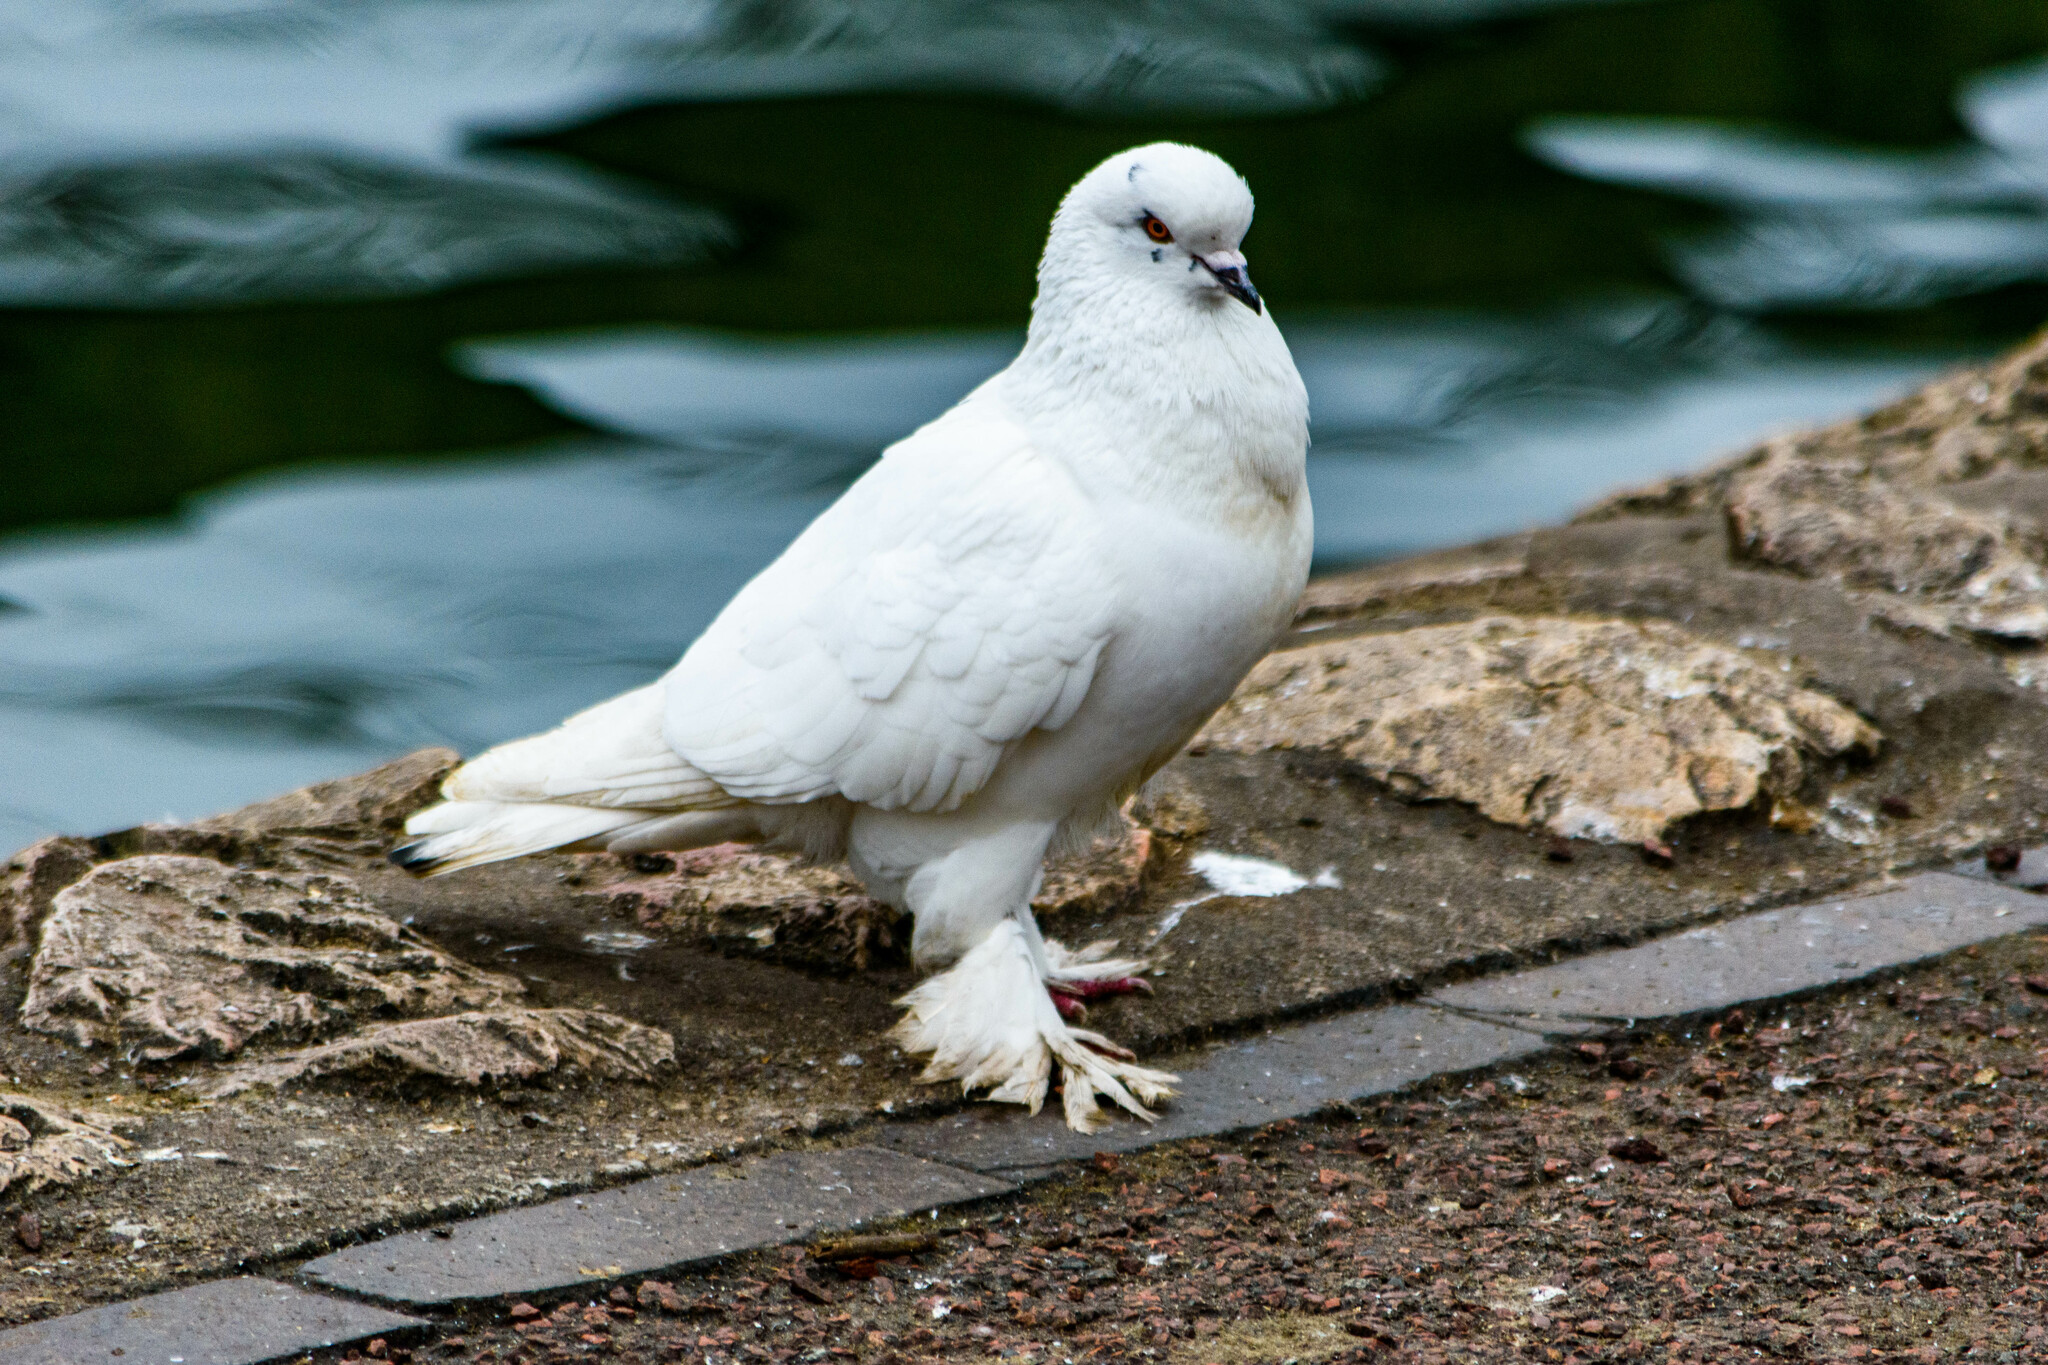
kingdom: Animalia
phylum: Chordata
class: Aves
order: Columbiformes
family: Columbidae
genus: Columba
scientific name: Columba livia
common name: Rock pigeon
